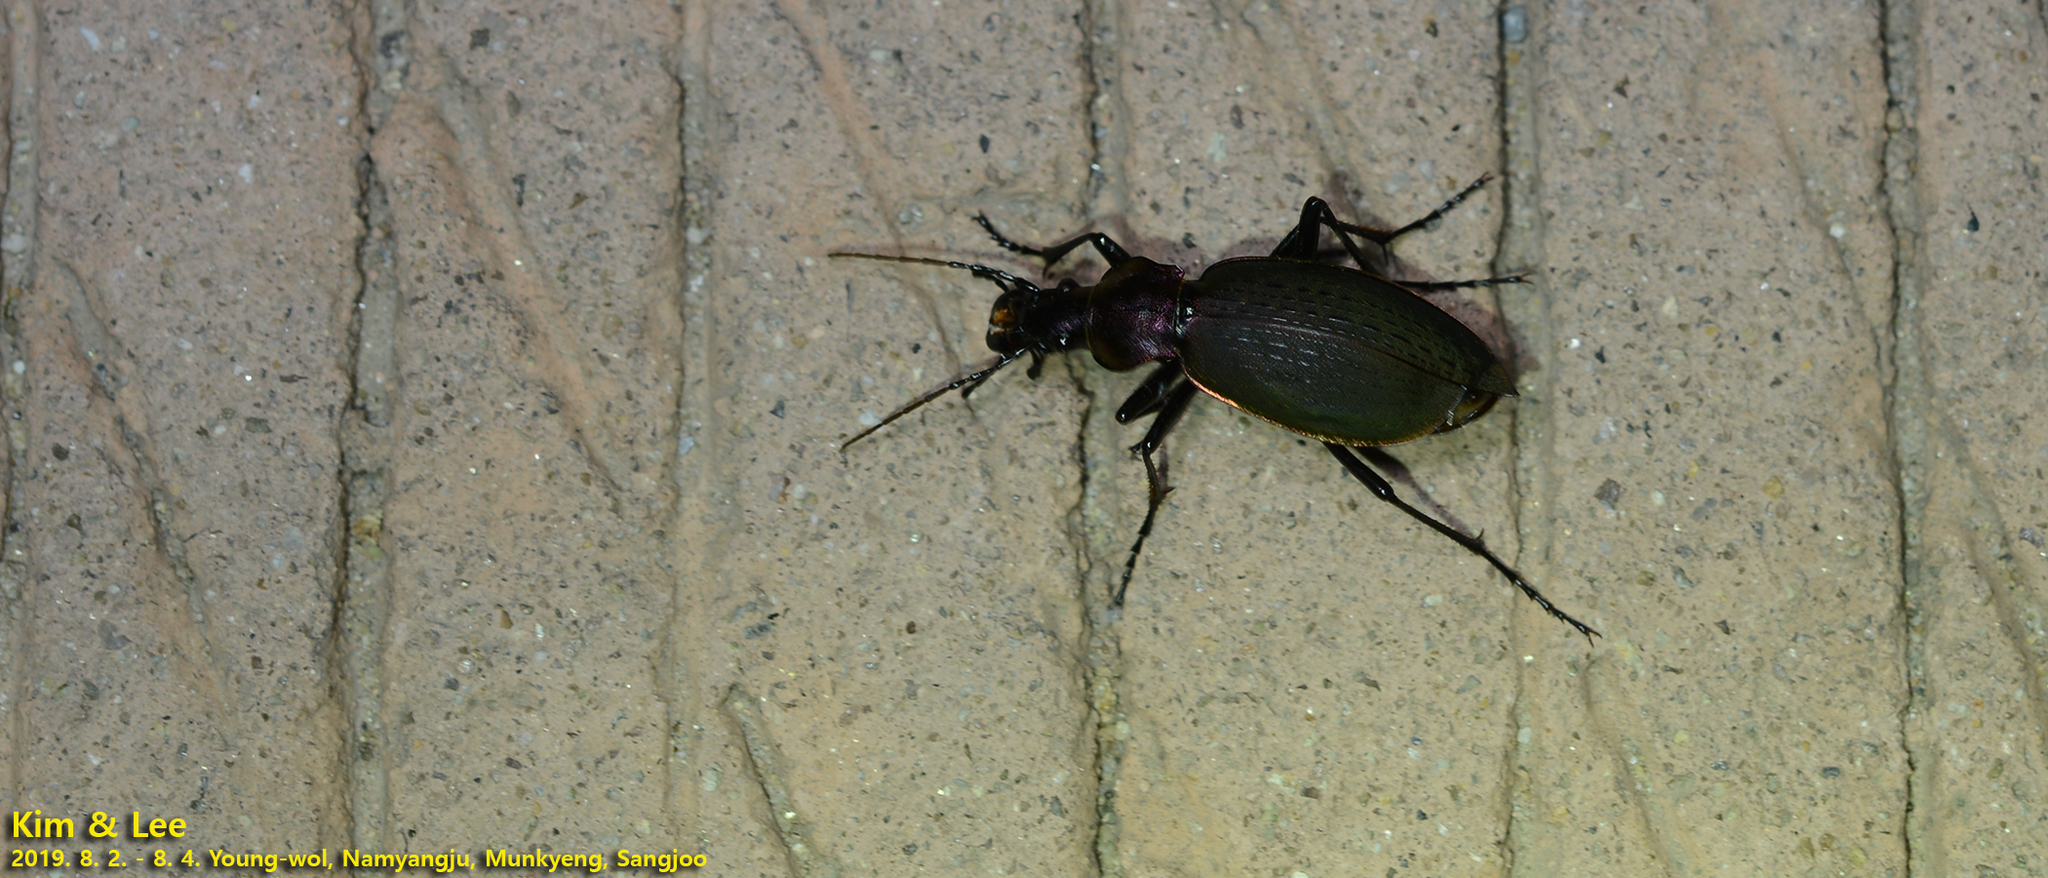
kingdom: Animalia
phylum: Arthropoda
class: Insecta
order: Coleoptera
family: Carabidae
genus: Carabus
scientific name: Carabus jankowskii
